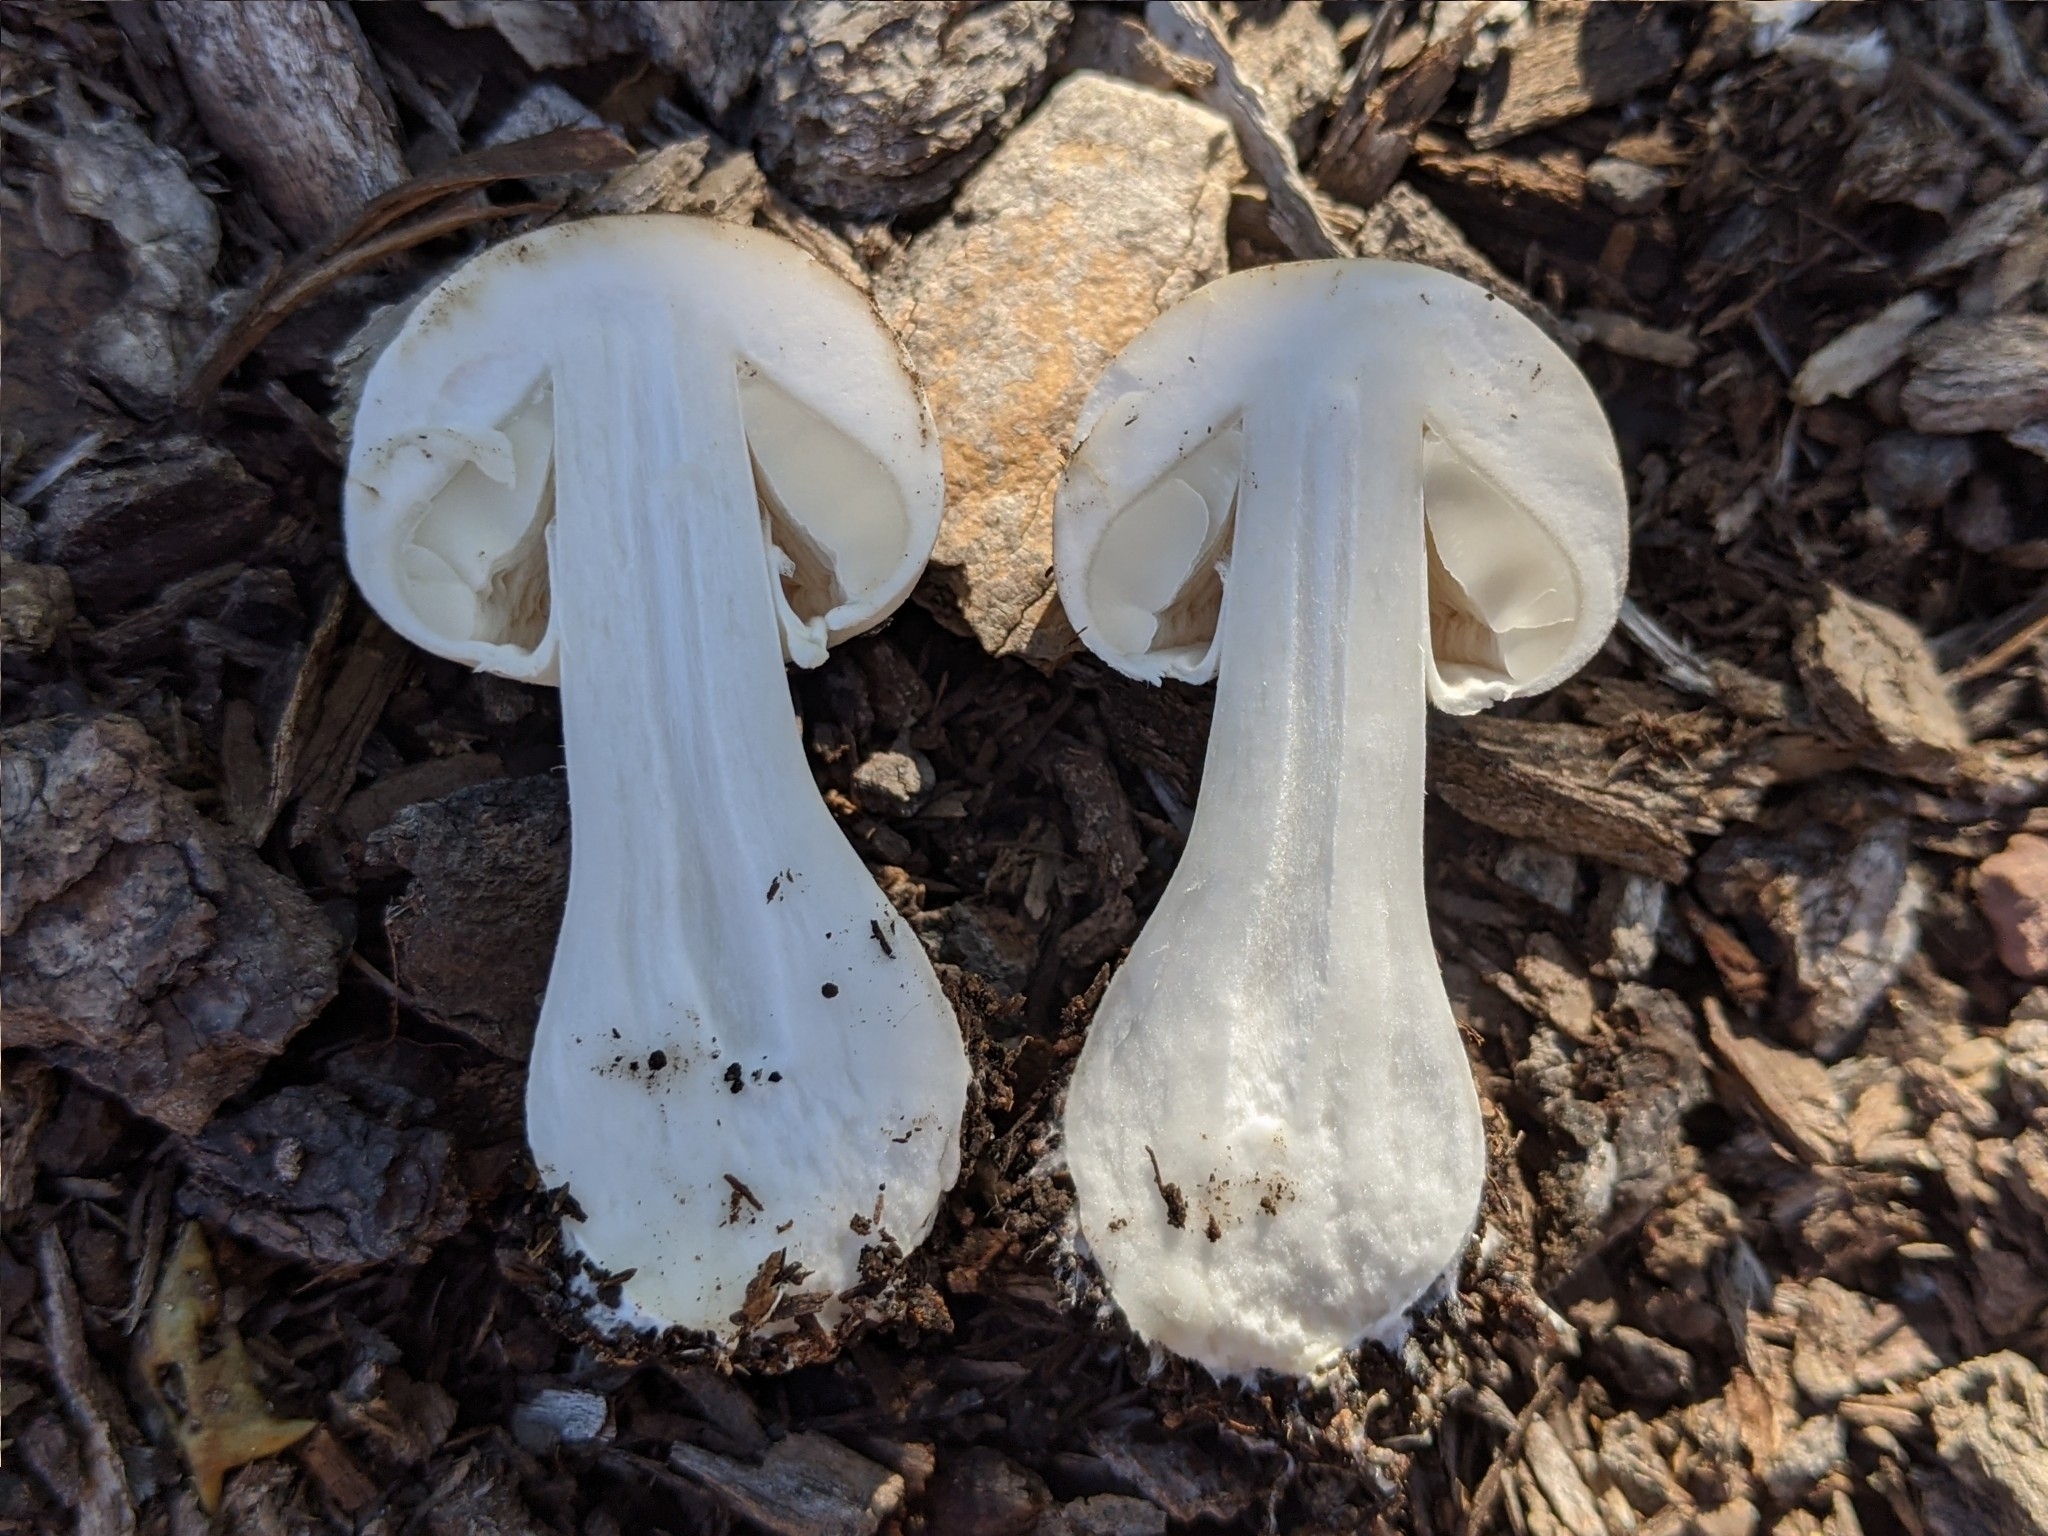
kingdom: Fungi
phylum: Basidiomycota
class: Agaricomycetes
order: Agaricales
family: Agaricaceae
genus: Leucoagaricus
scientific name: Leucoagaricus leucothites
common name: White dapperling
